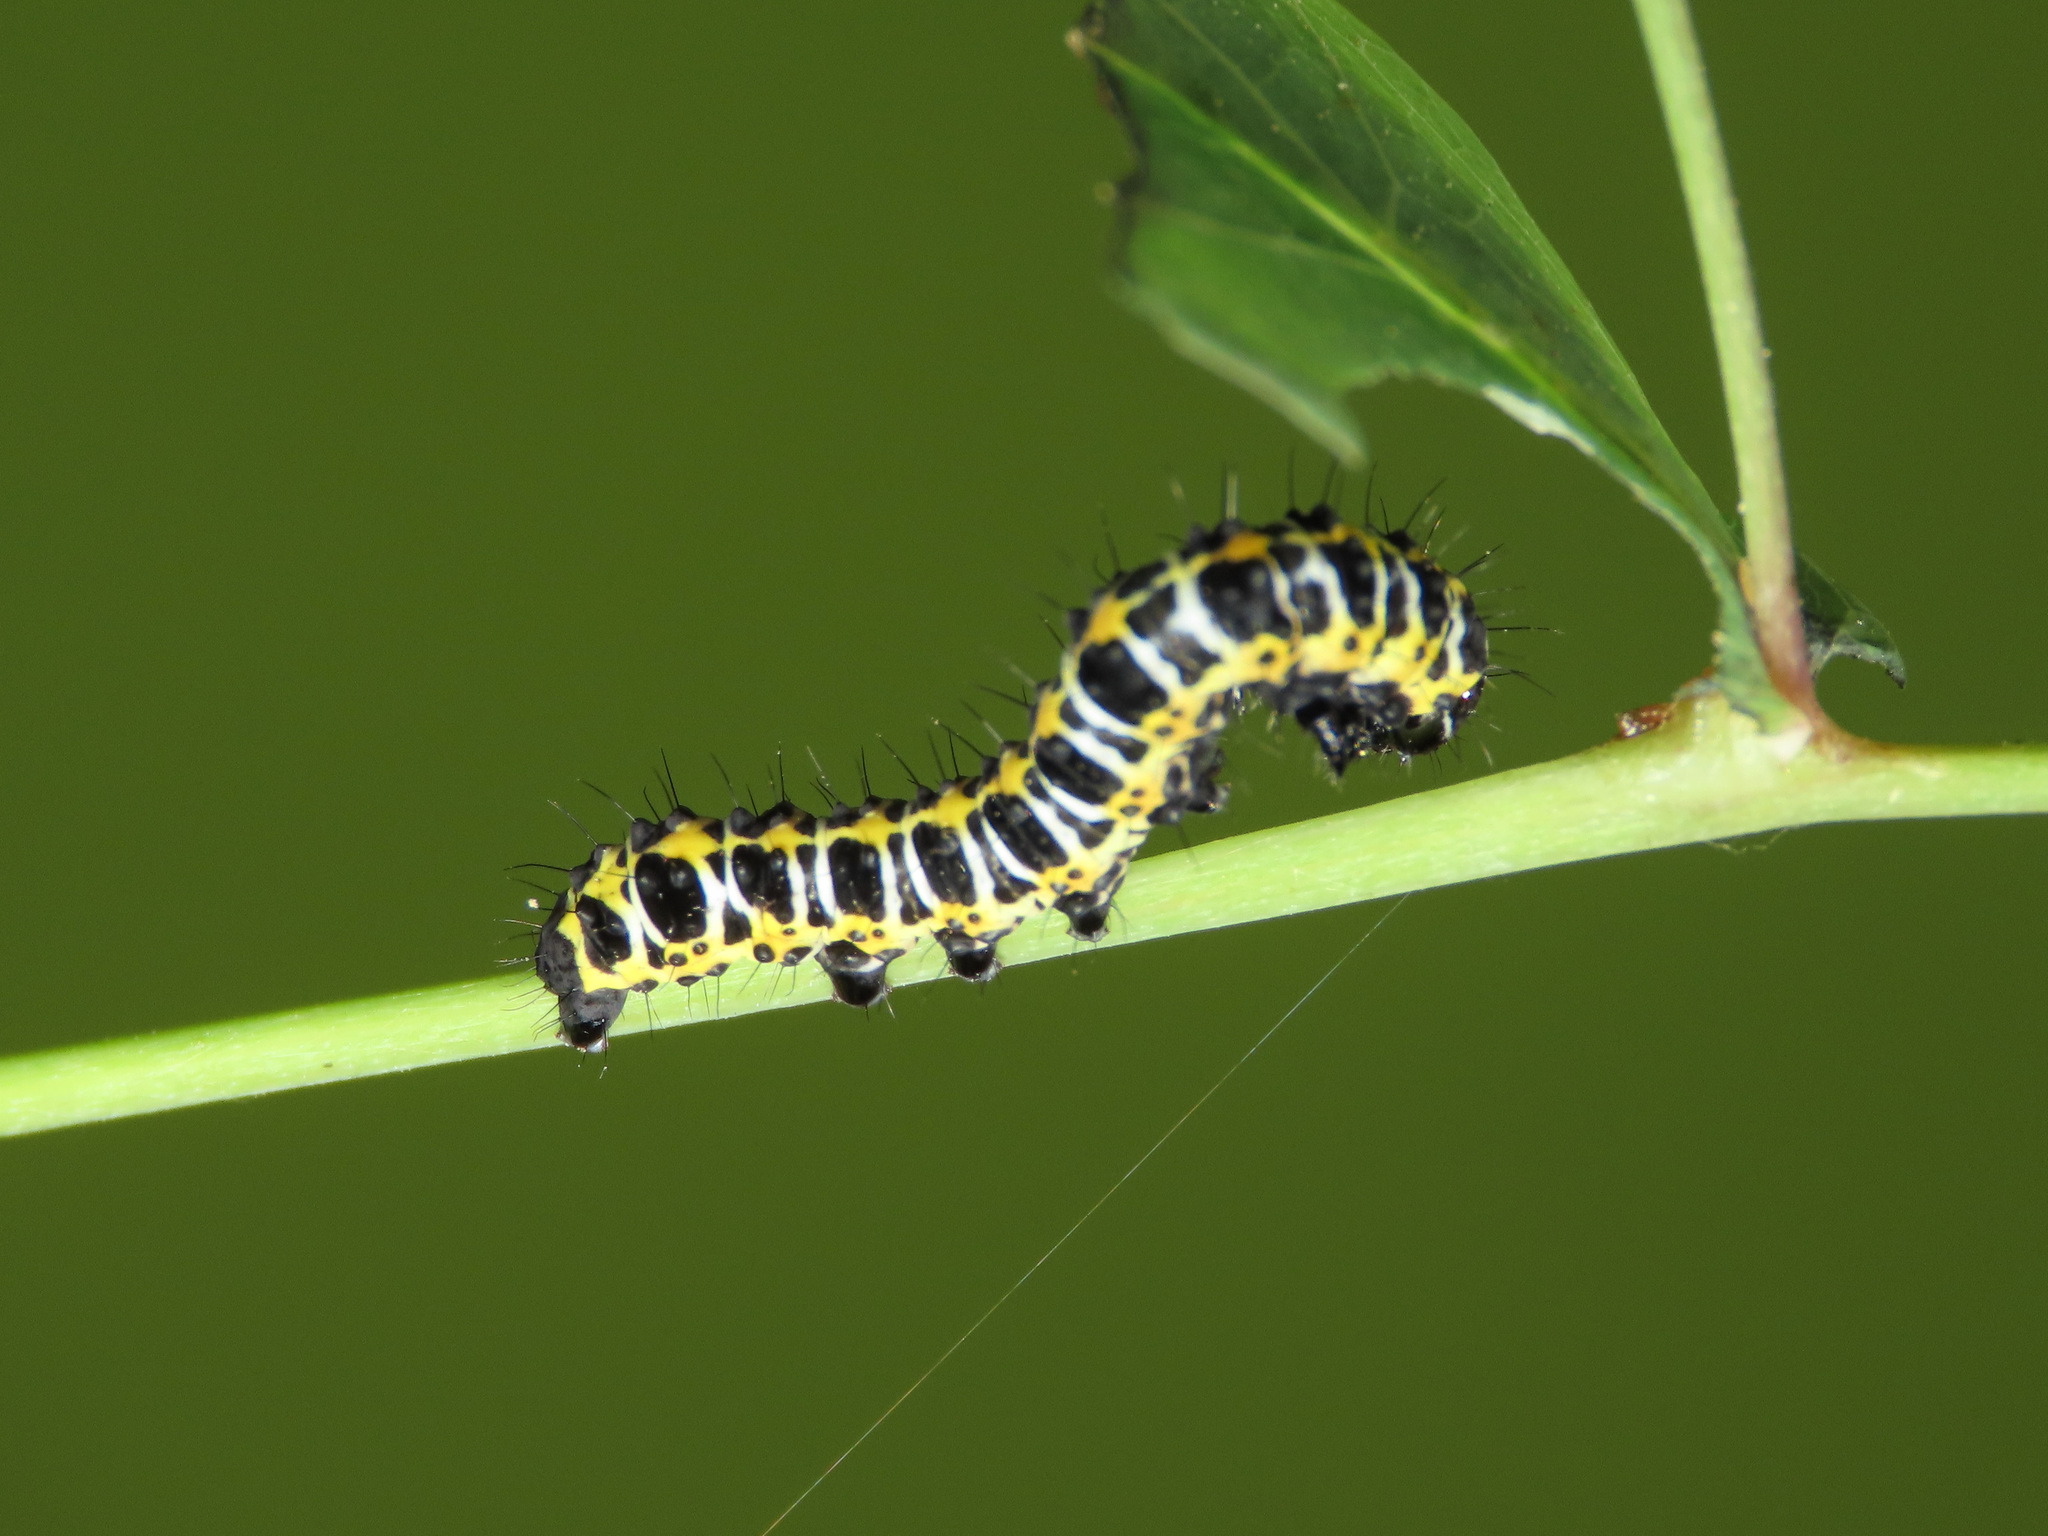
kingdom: Animalia
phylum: Arthropoda
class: Insecta
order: Lepidoptera
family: Noctuidae
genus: Cucullia
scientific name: Cucullia lactucae
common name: Lettuce shark
